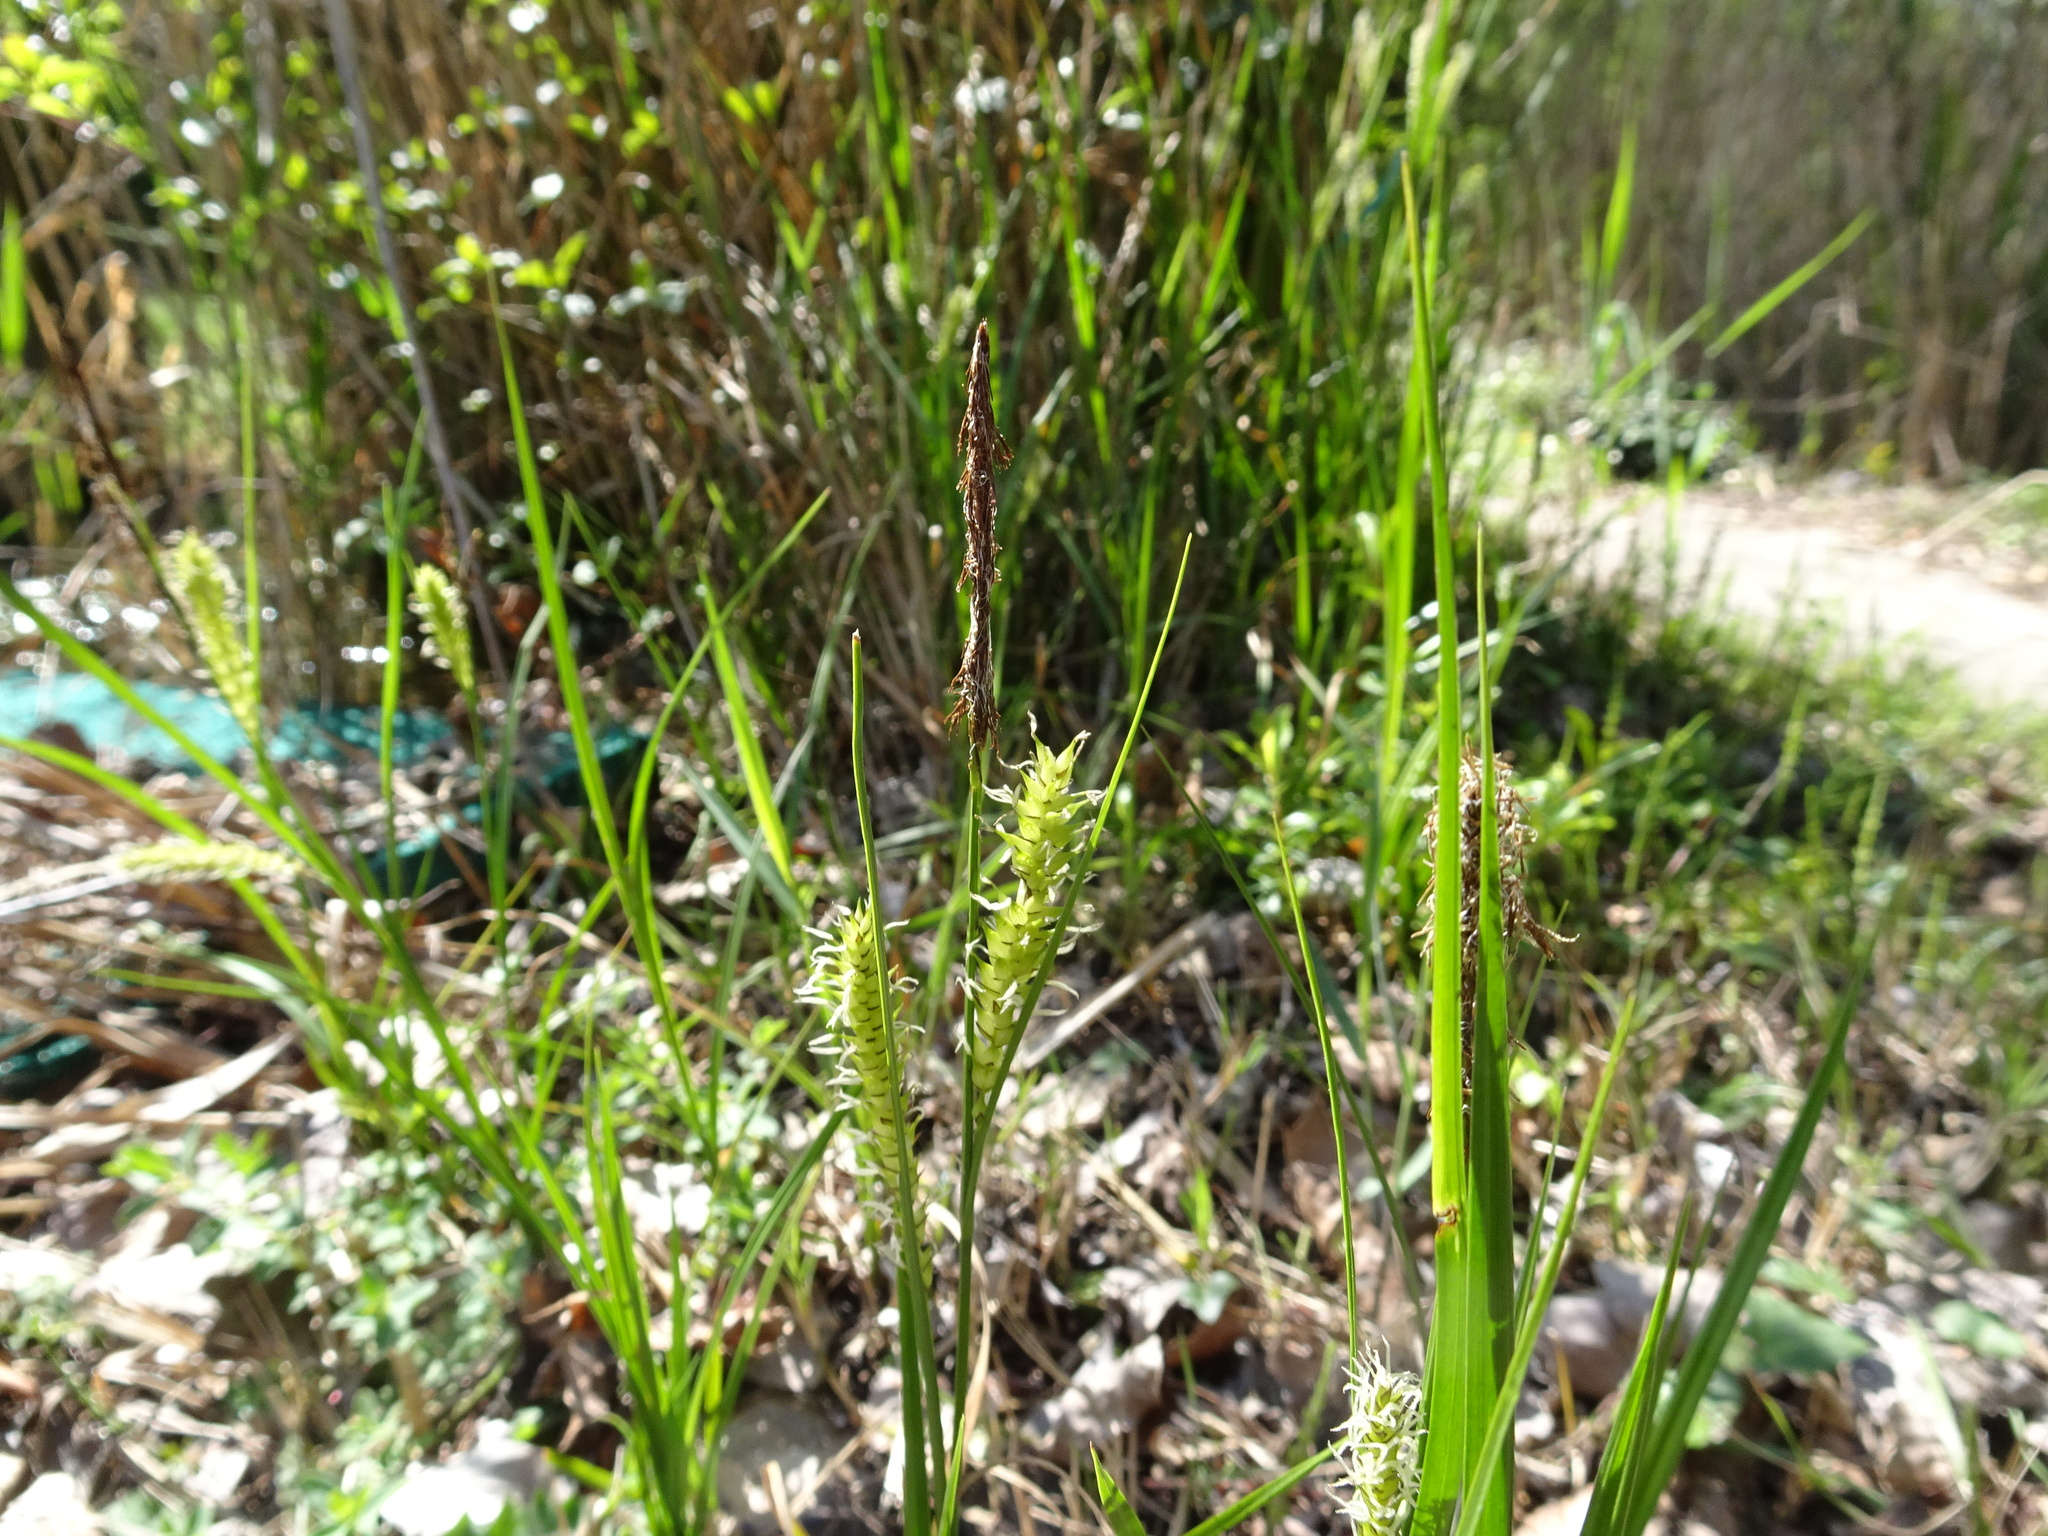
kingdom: Plantae
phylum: Tracheophyta
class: Liliopsida
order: Poales
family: Cyperaceae
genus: Carex
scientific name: Carex vesicaria
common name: Bladder-sedge
